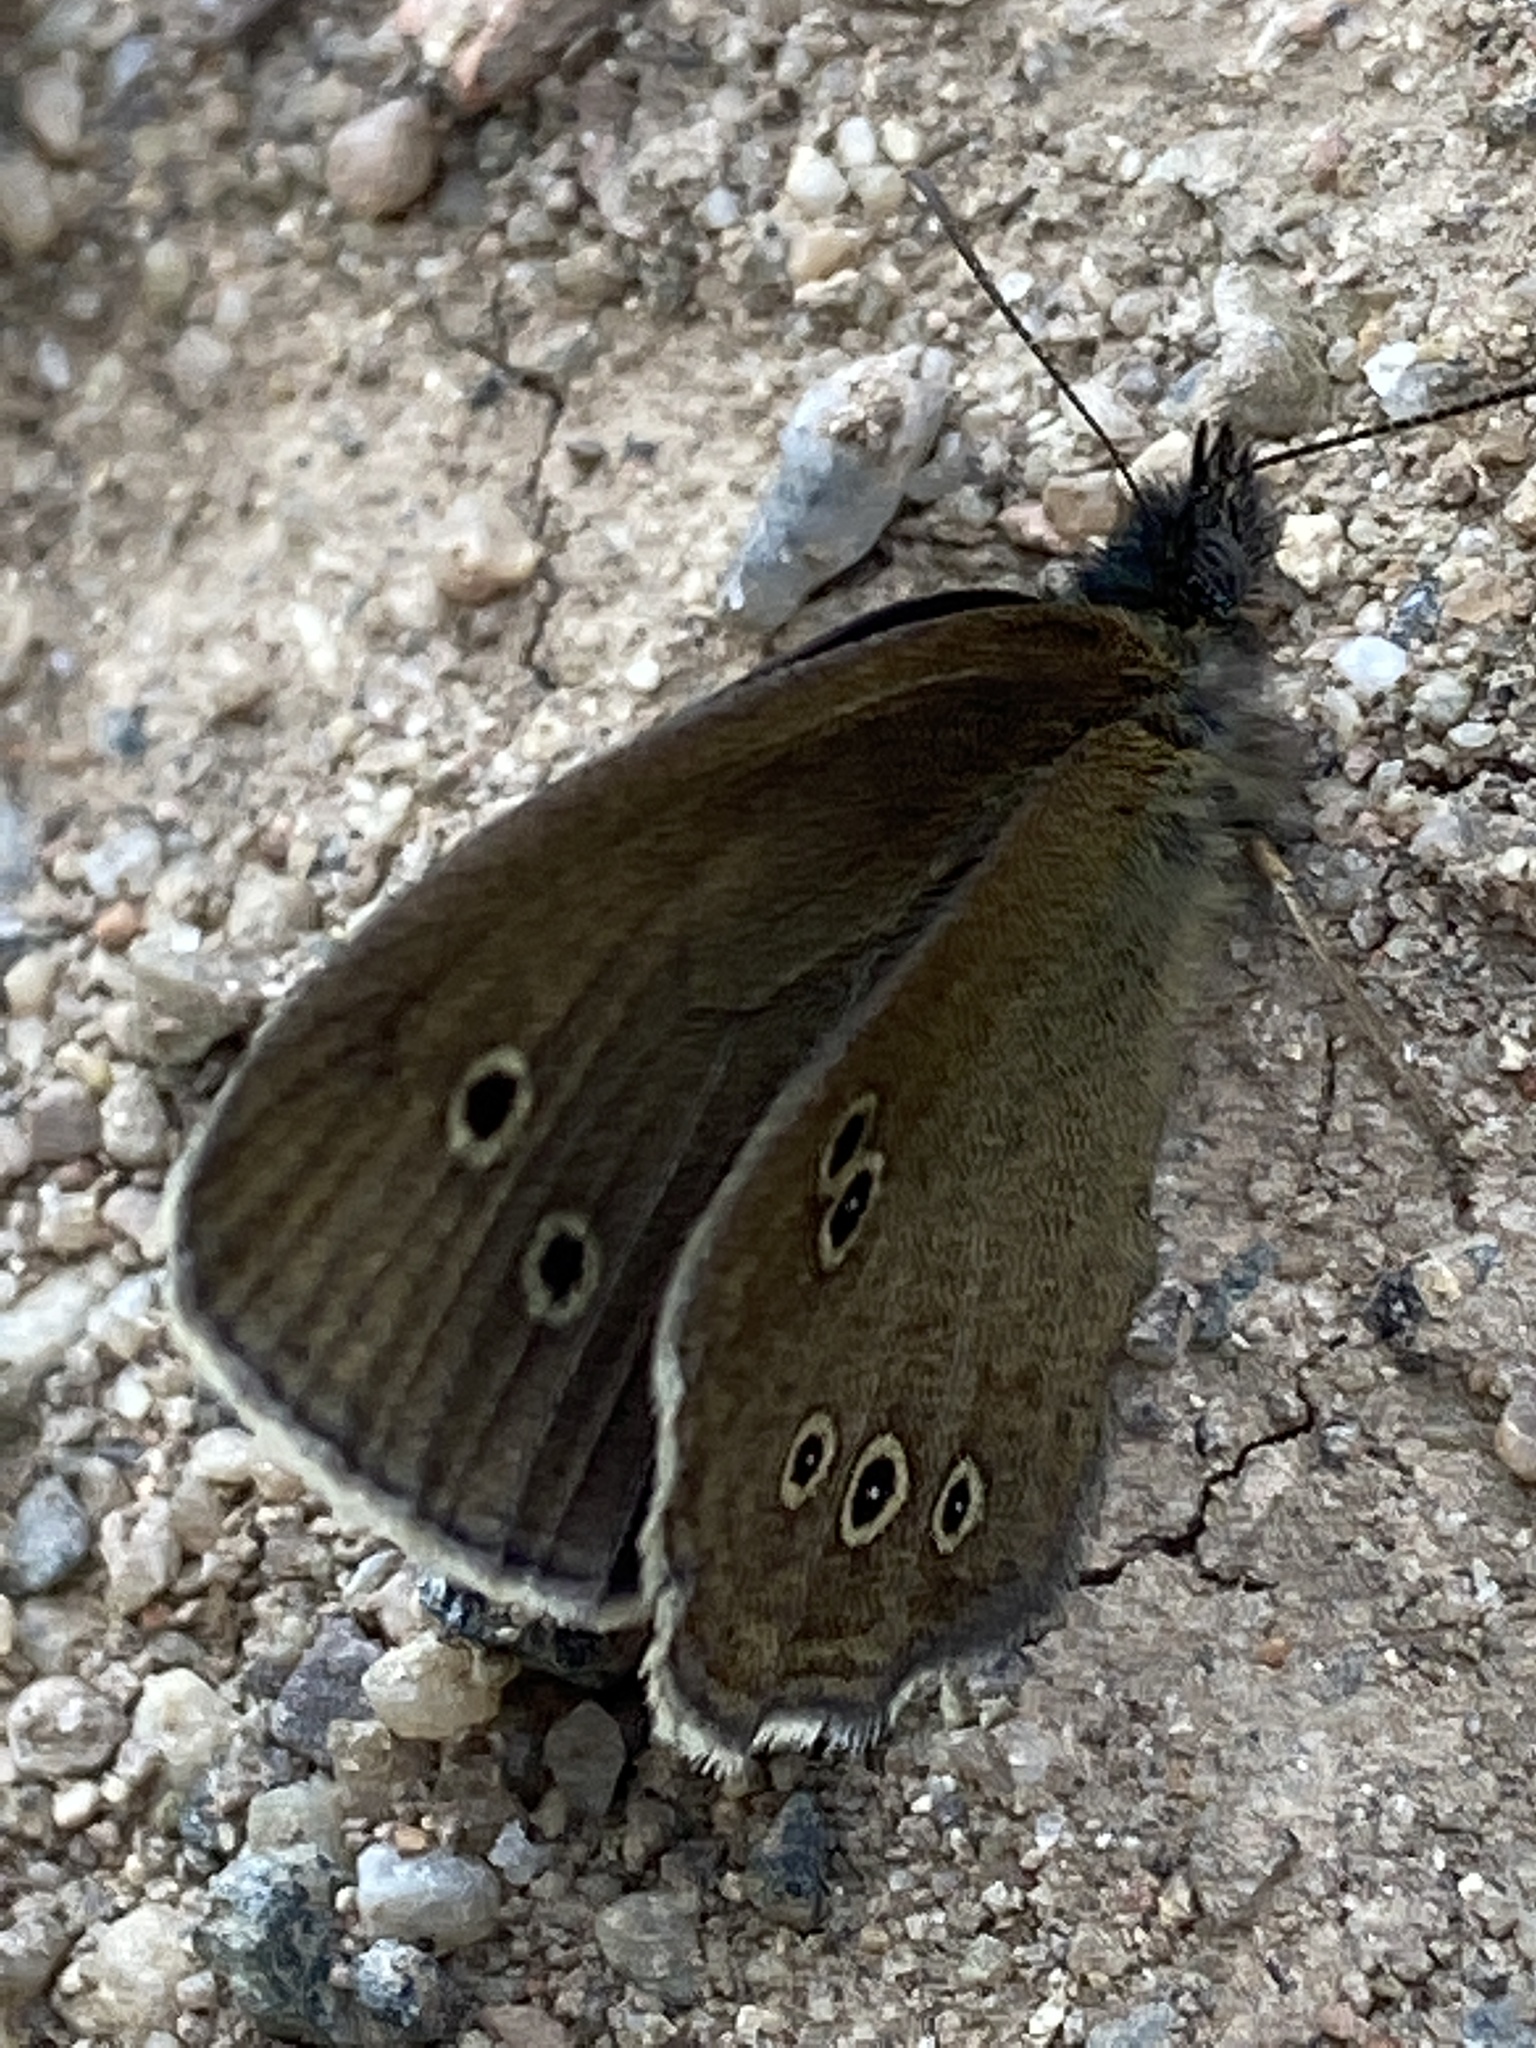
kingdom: Animalia
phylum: Arthropoda
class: Insecta
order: Lepidoptera
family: Nymphalidae
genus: Aphantopus
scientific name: Aphantopus hyperantus
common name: Ringlet
